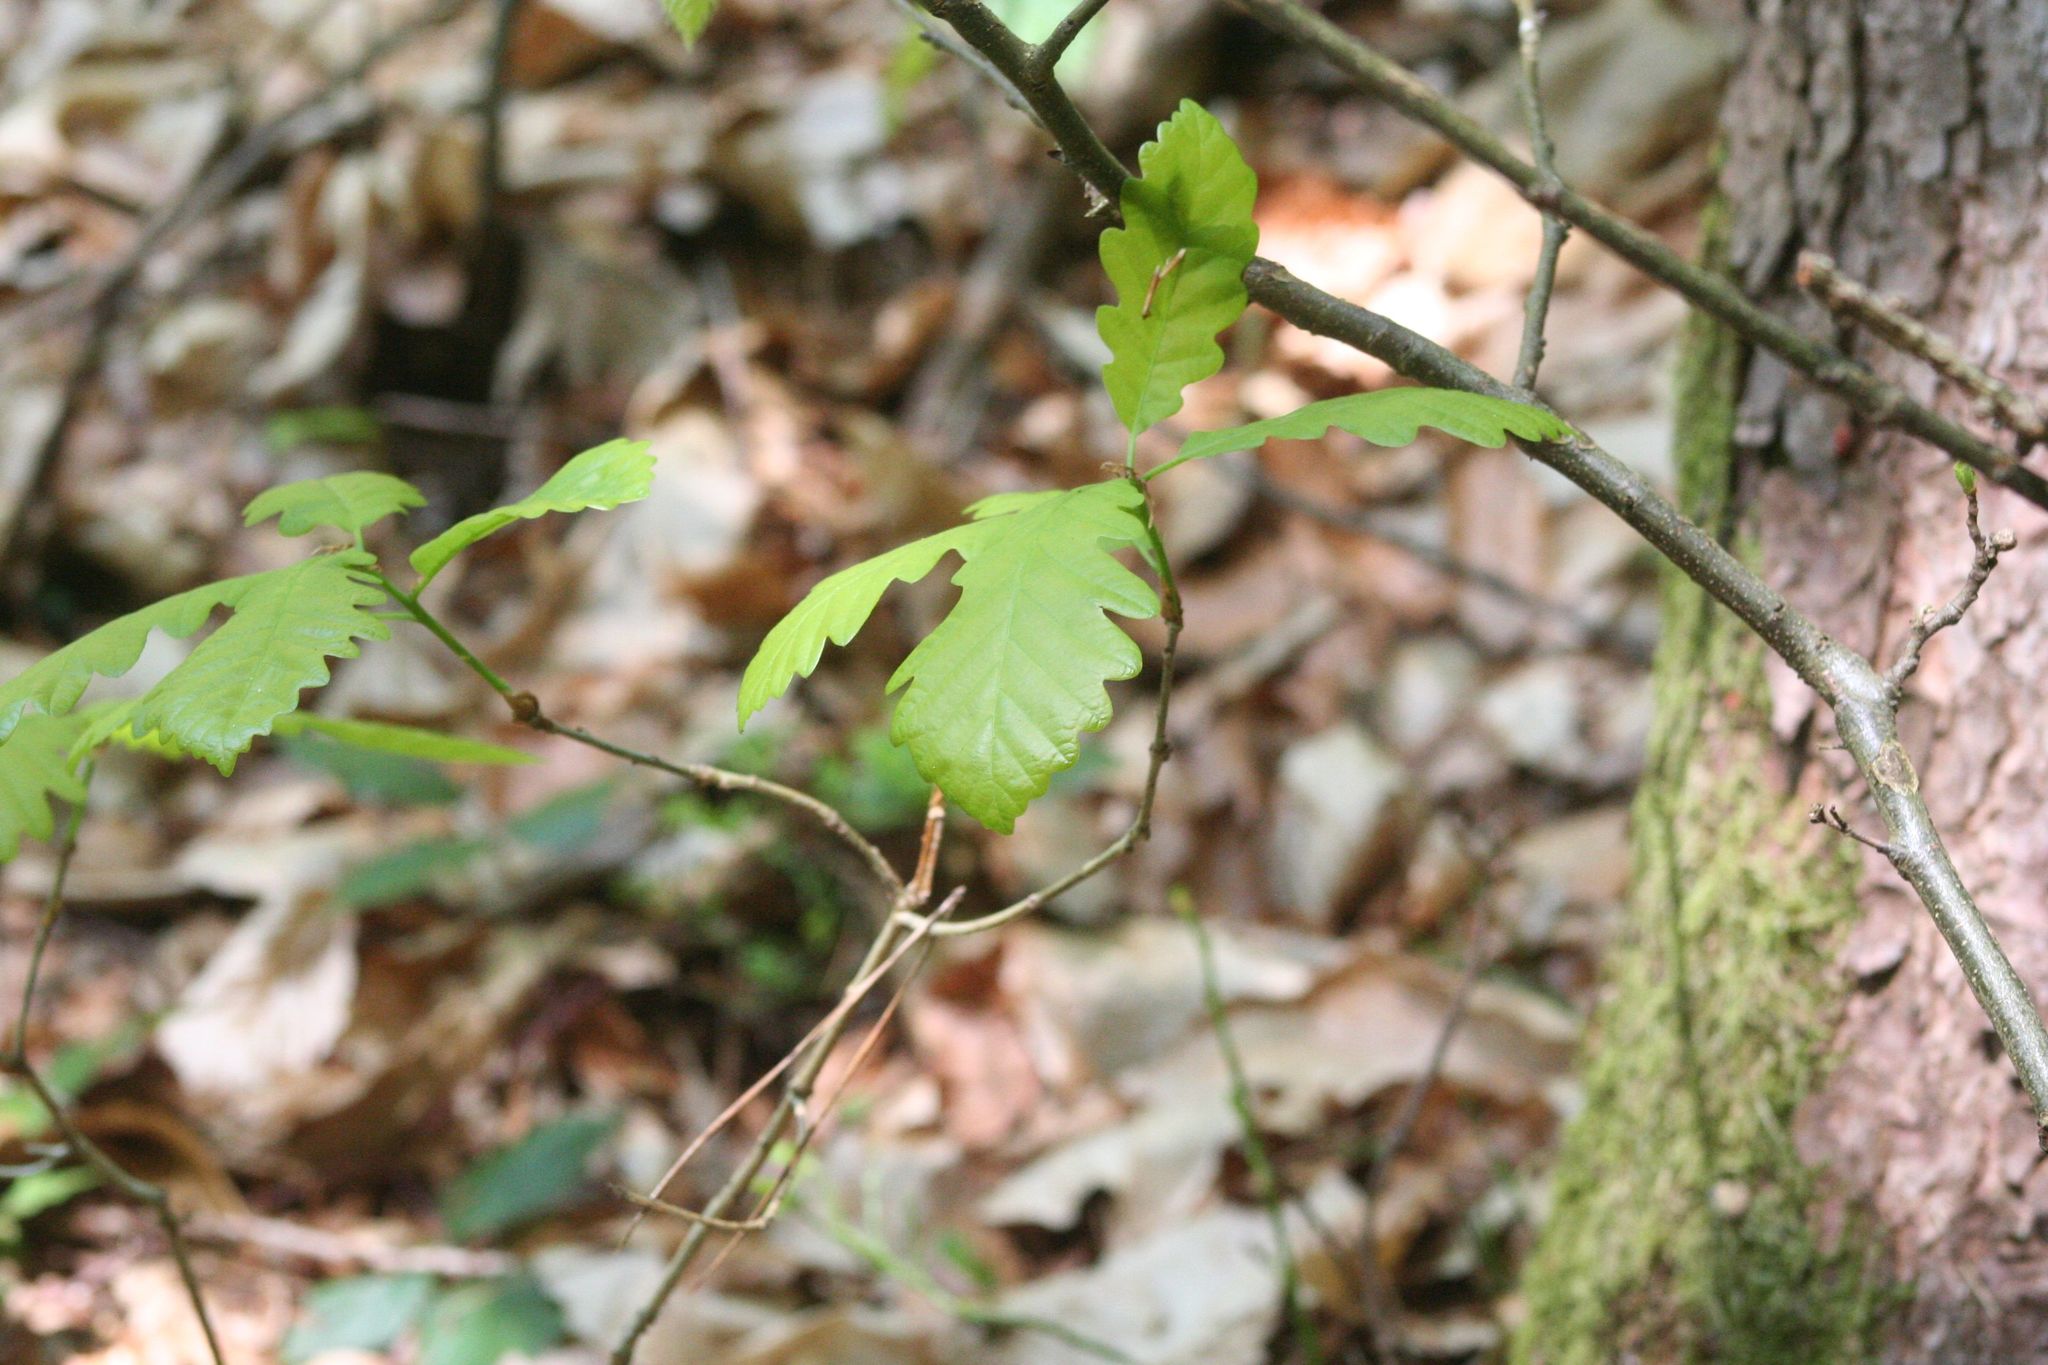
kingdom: Plantae
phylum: Tracheophyta
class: Magnoliopsida
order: Fagales
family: Fagaceae
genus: Quercus
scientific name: Quercus petraea
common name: Sessile oak
